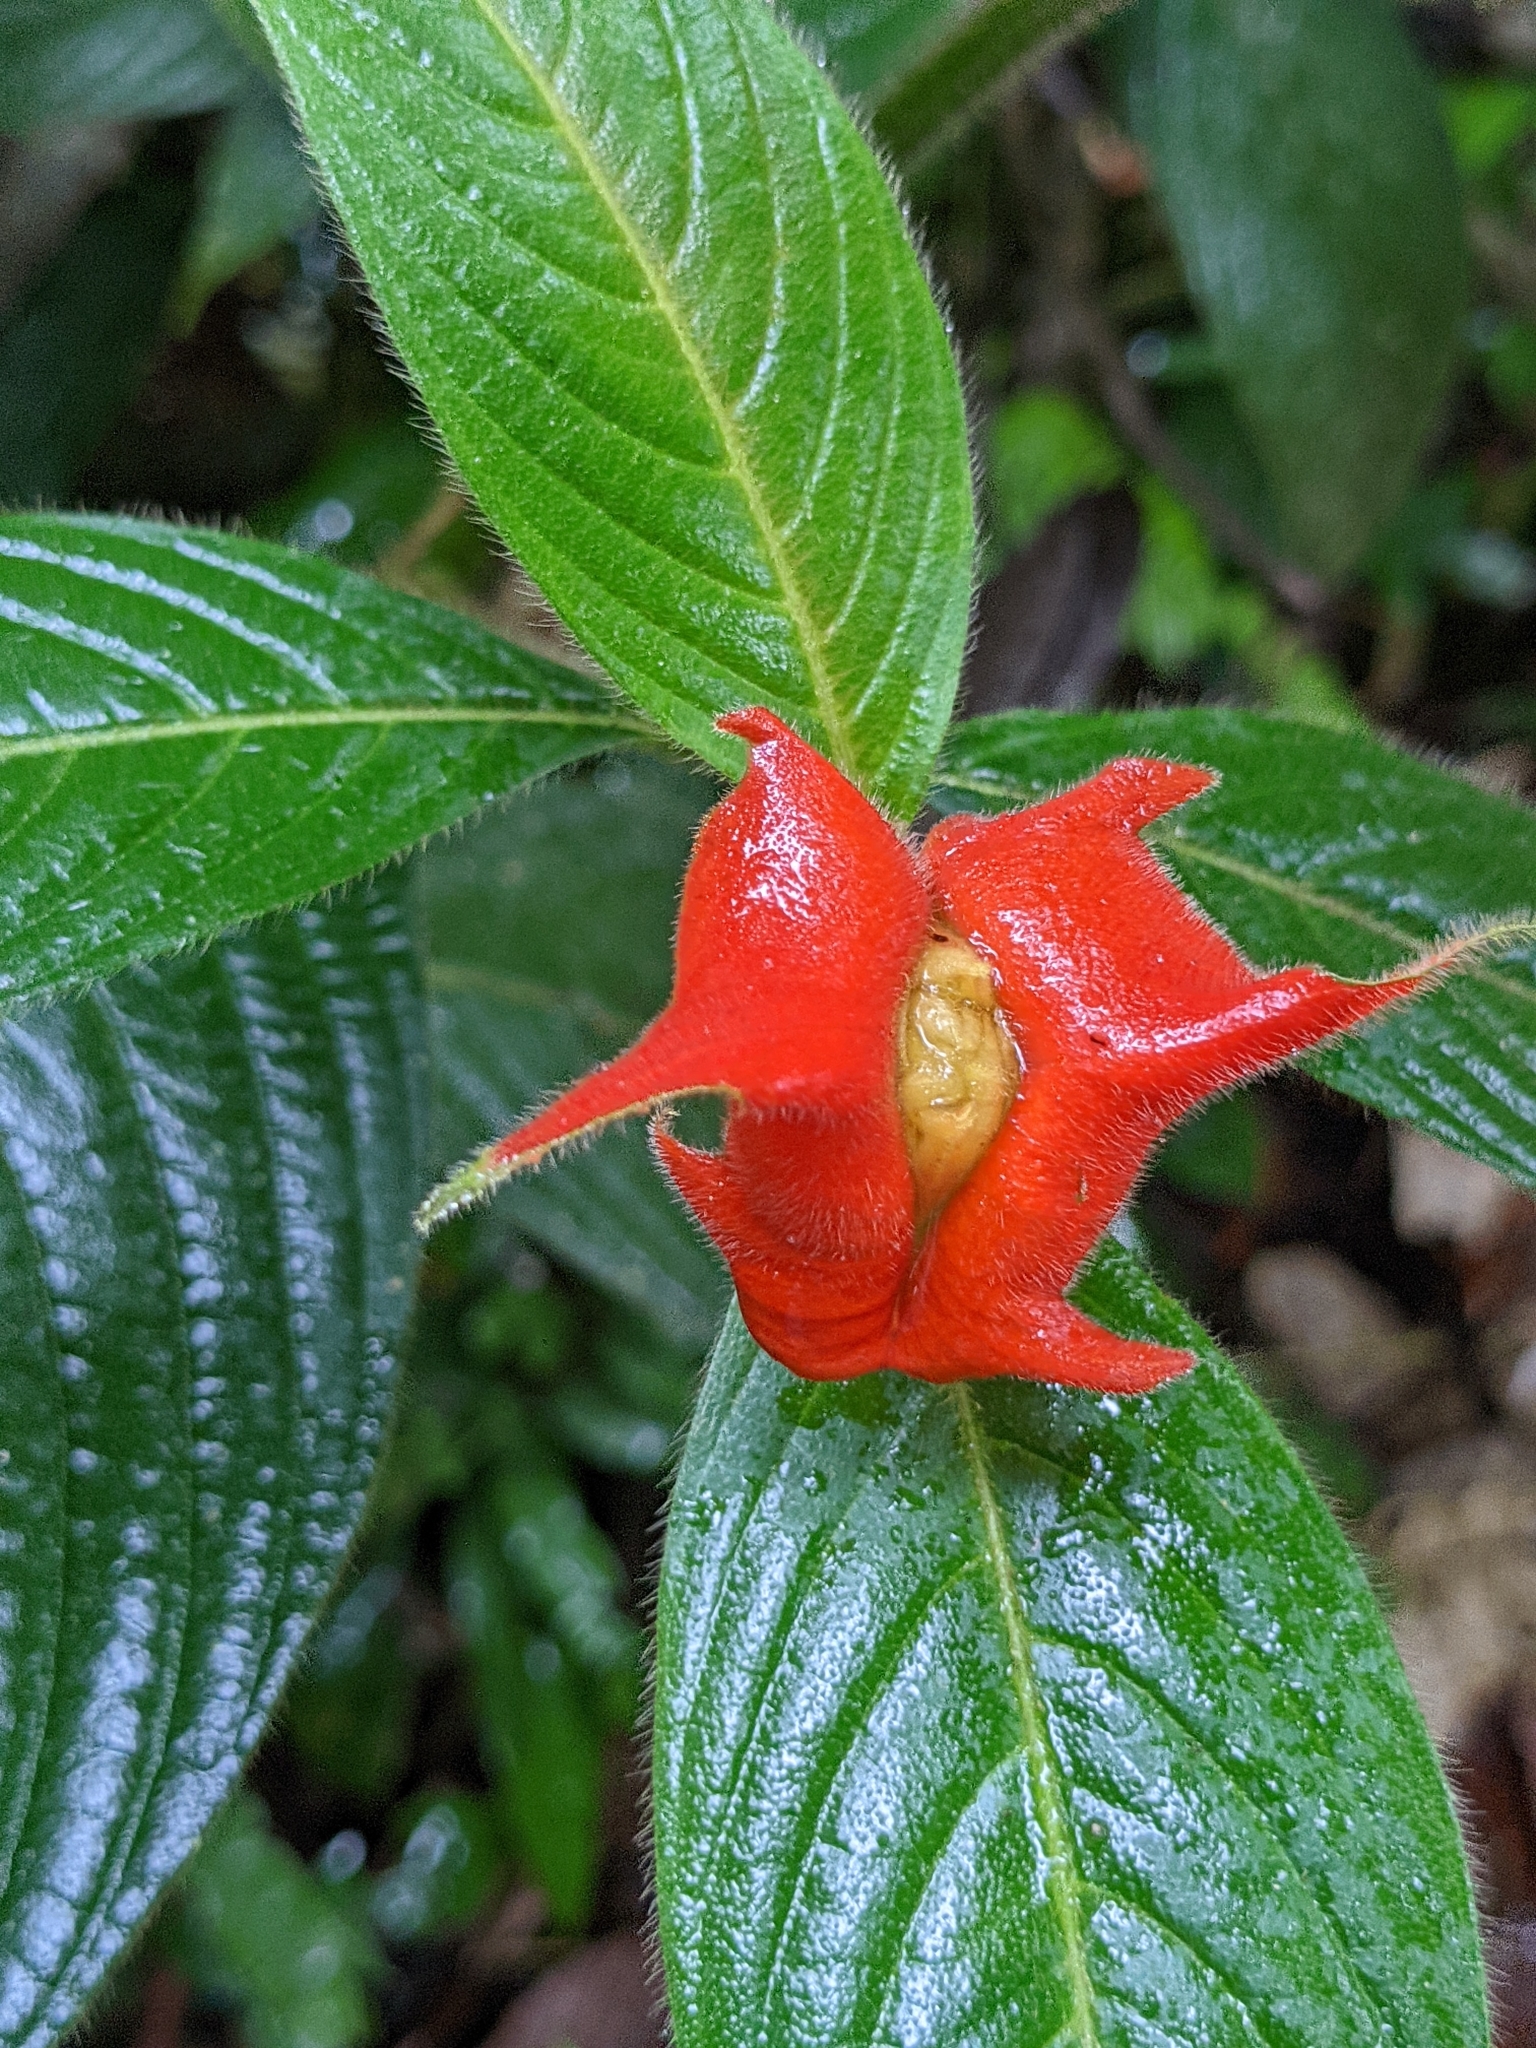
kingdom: Plantae
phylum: Tracheophyta
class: Magnoliopsida
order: Gentianales
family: Rubiaceae
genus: Palicourea
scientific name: Palicourea tomentosa
